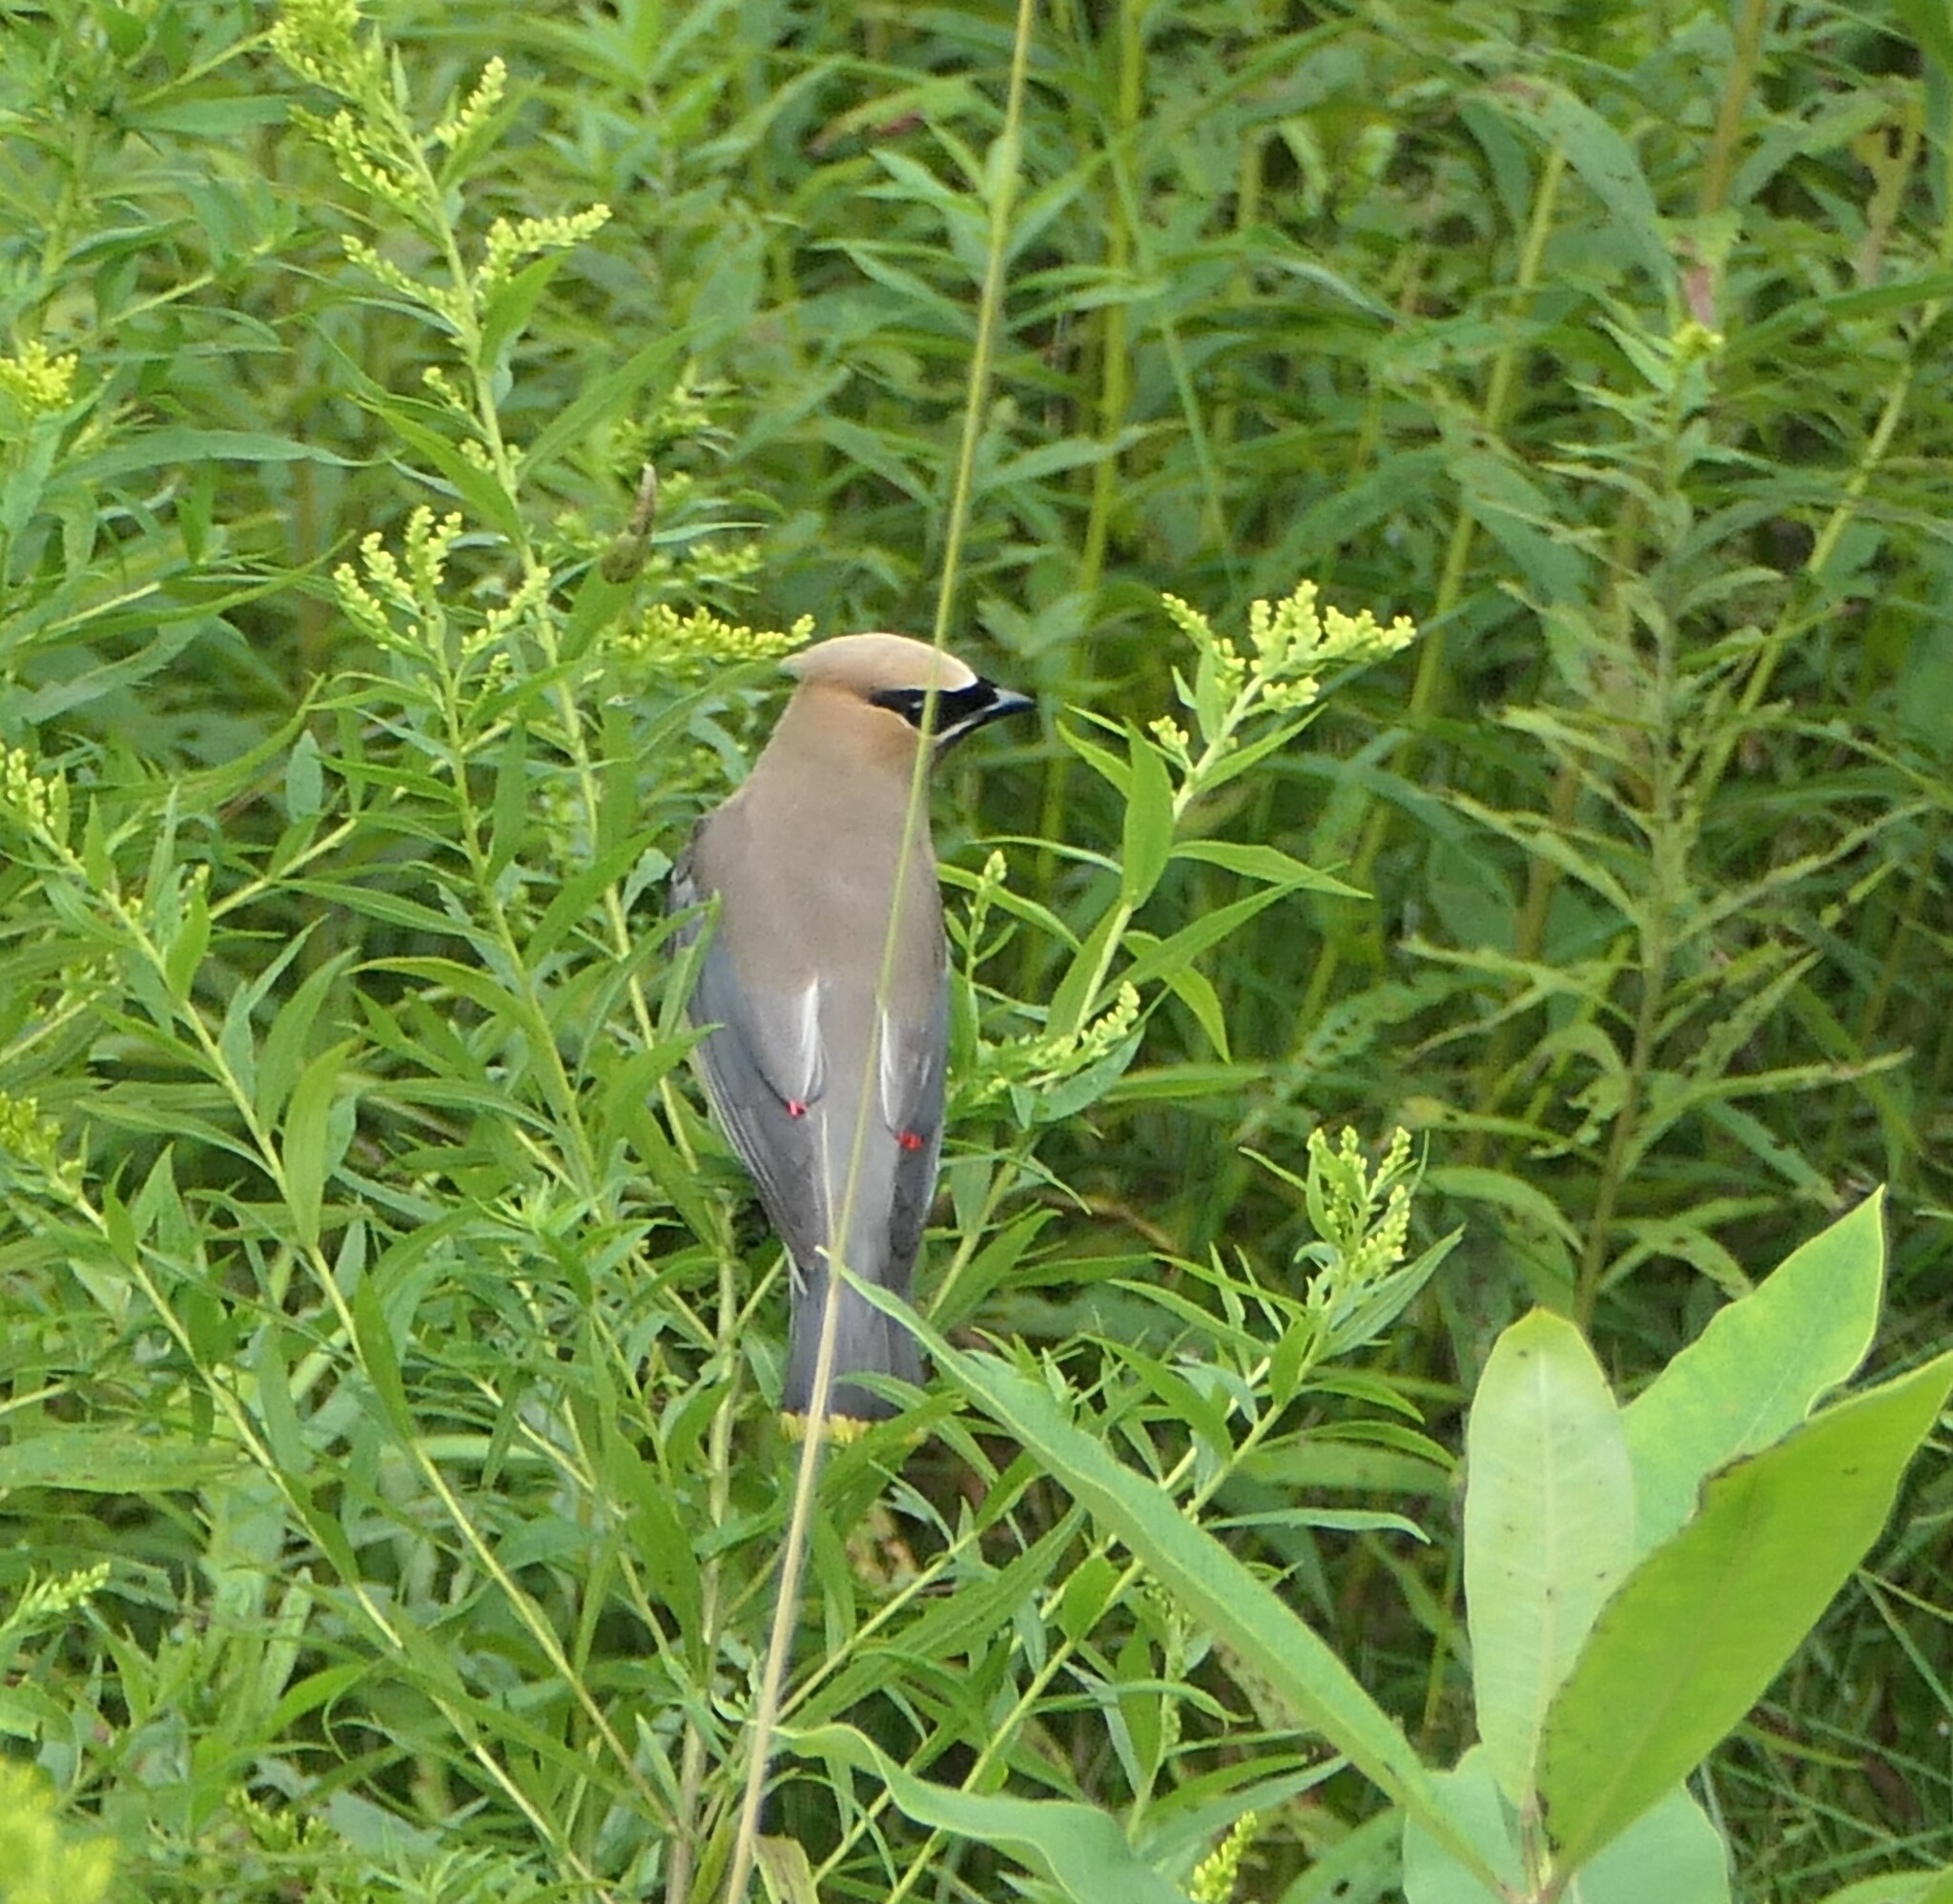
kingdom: Animalia
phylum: Chordata
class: Aves
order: Passeriformes
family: Bombycillidae
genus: Bombycilla
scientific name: Bombycilla cedrorum
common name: Cedar waxwing
